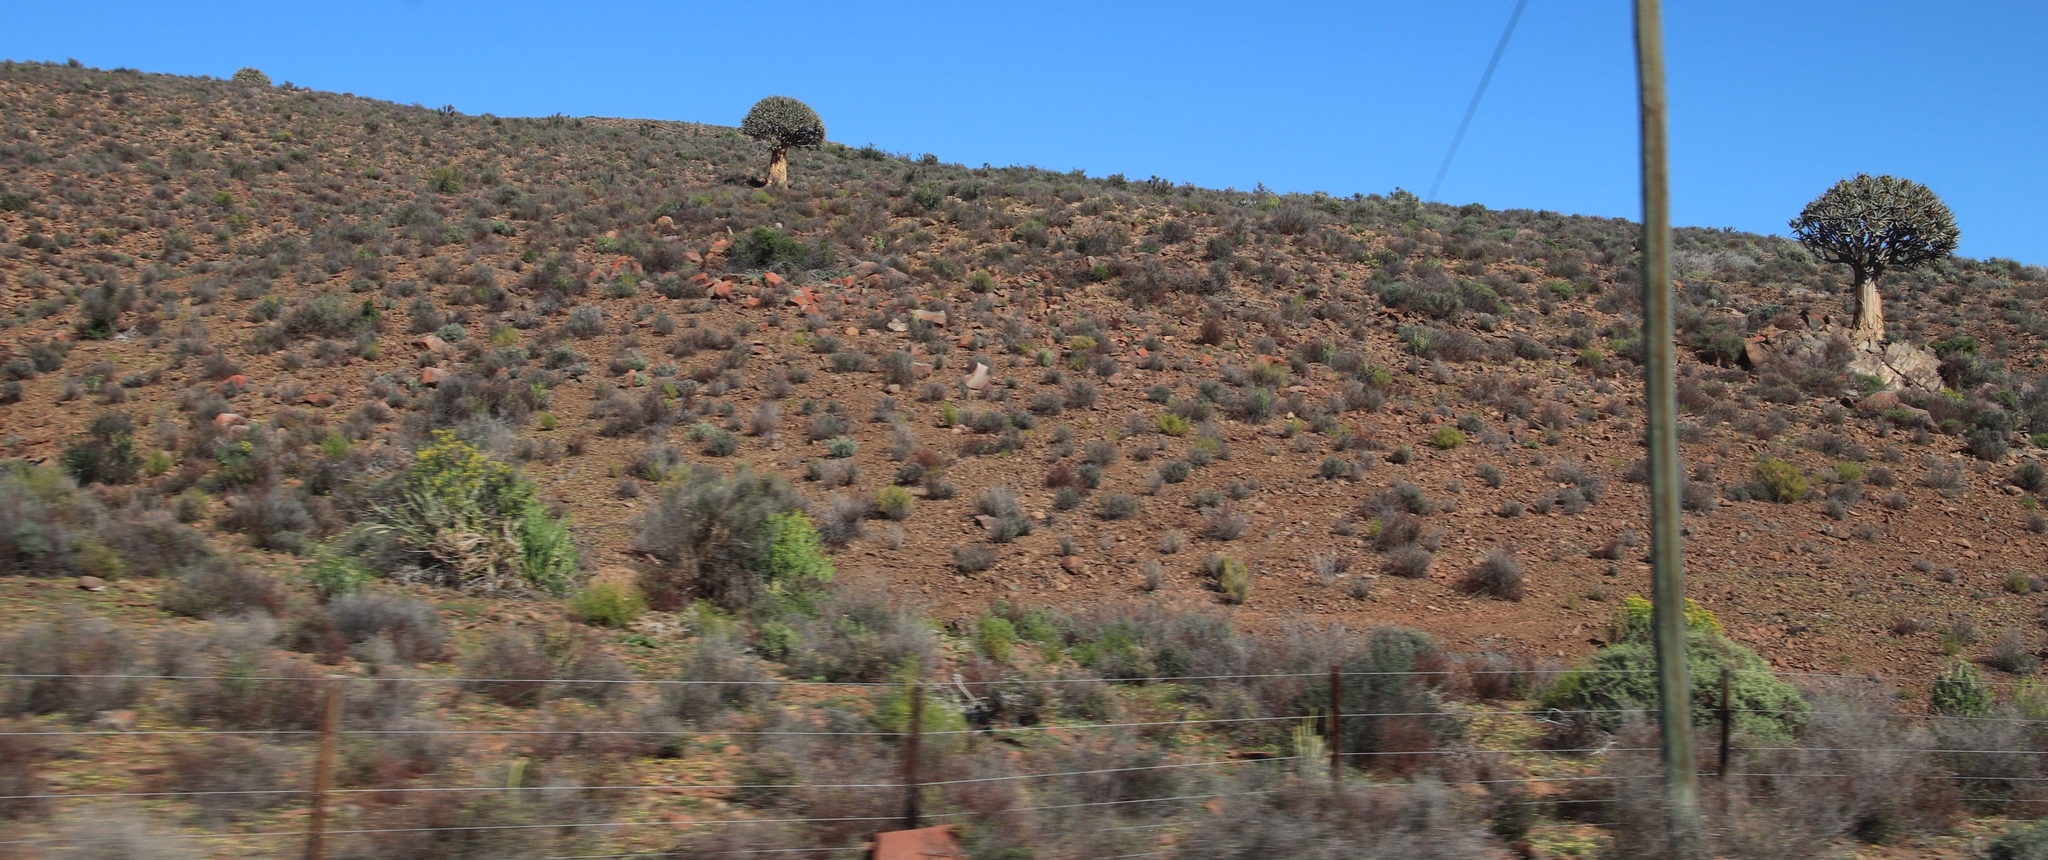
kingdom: Plantae
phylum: Tracheophyta
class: Liliopsida
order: Asparagales
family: Asphodelaceae
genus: Aloidendron
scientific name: Aloidendron dichotomum
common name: Quiver tree
